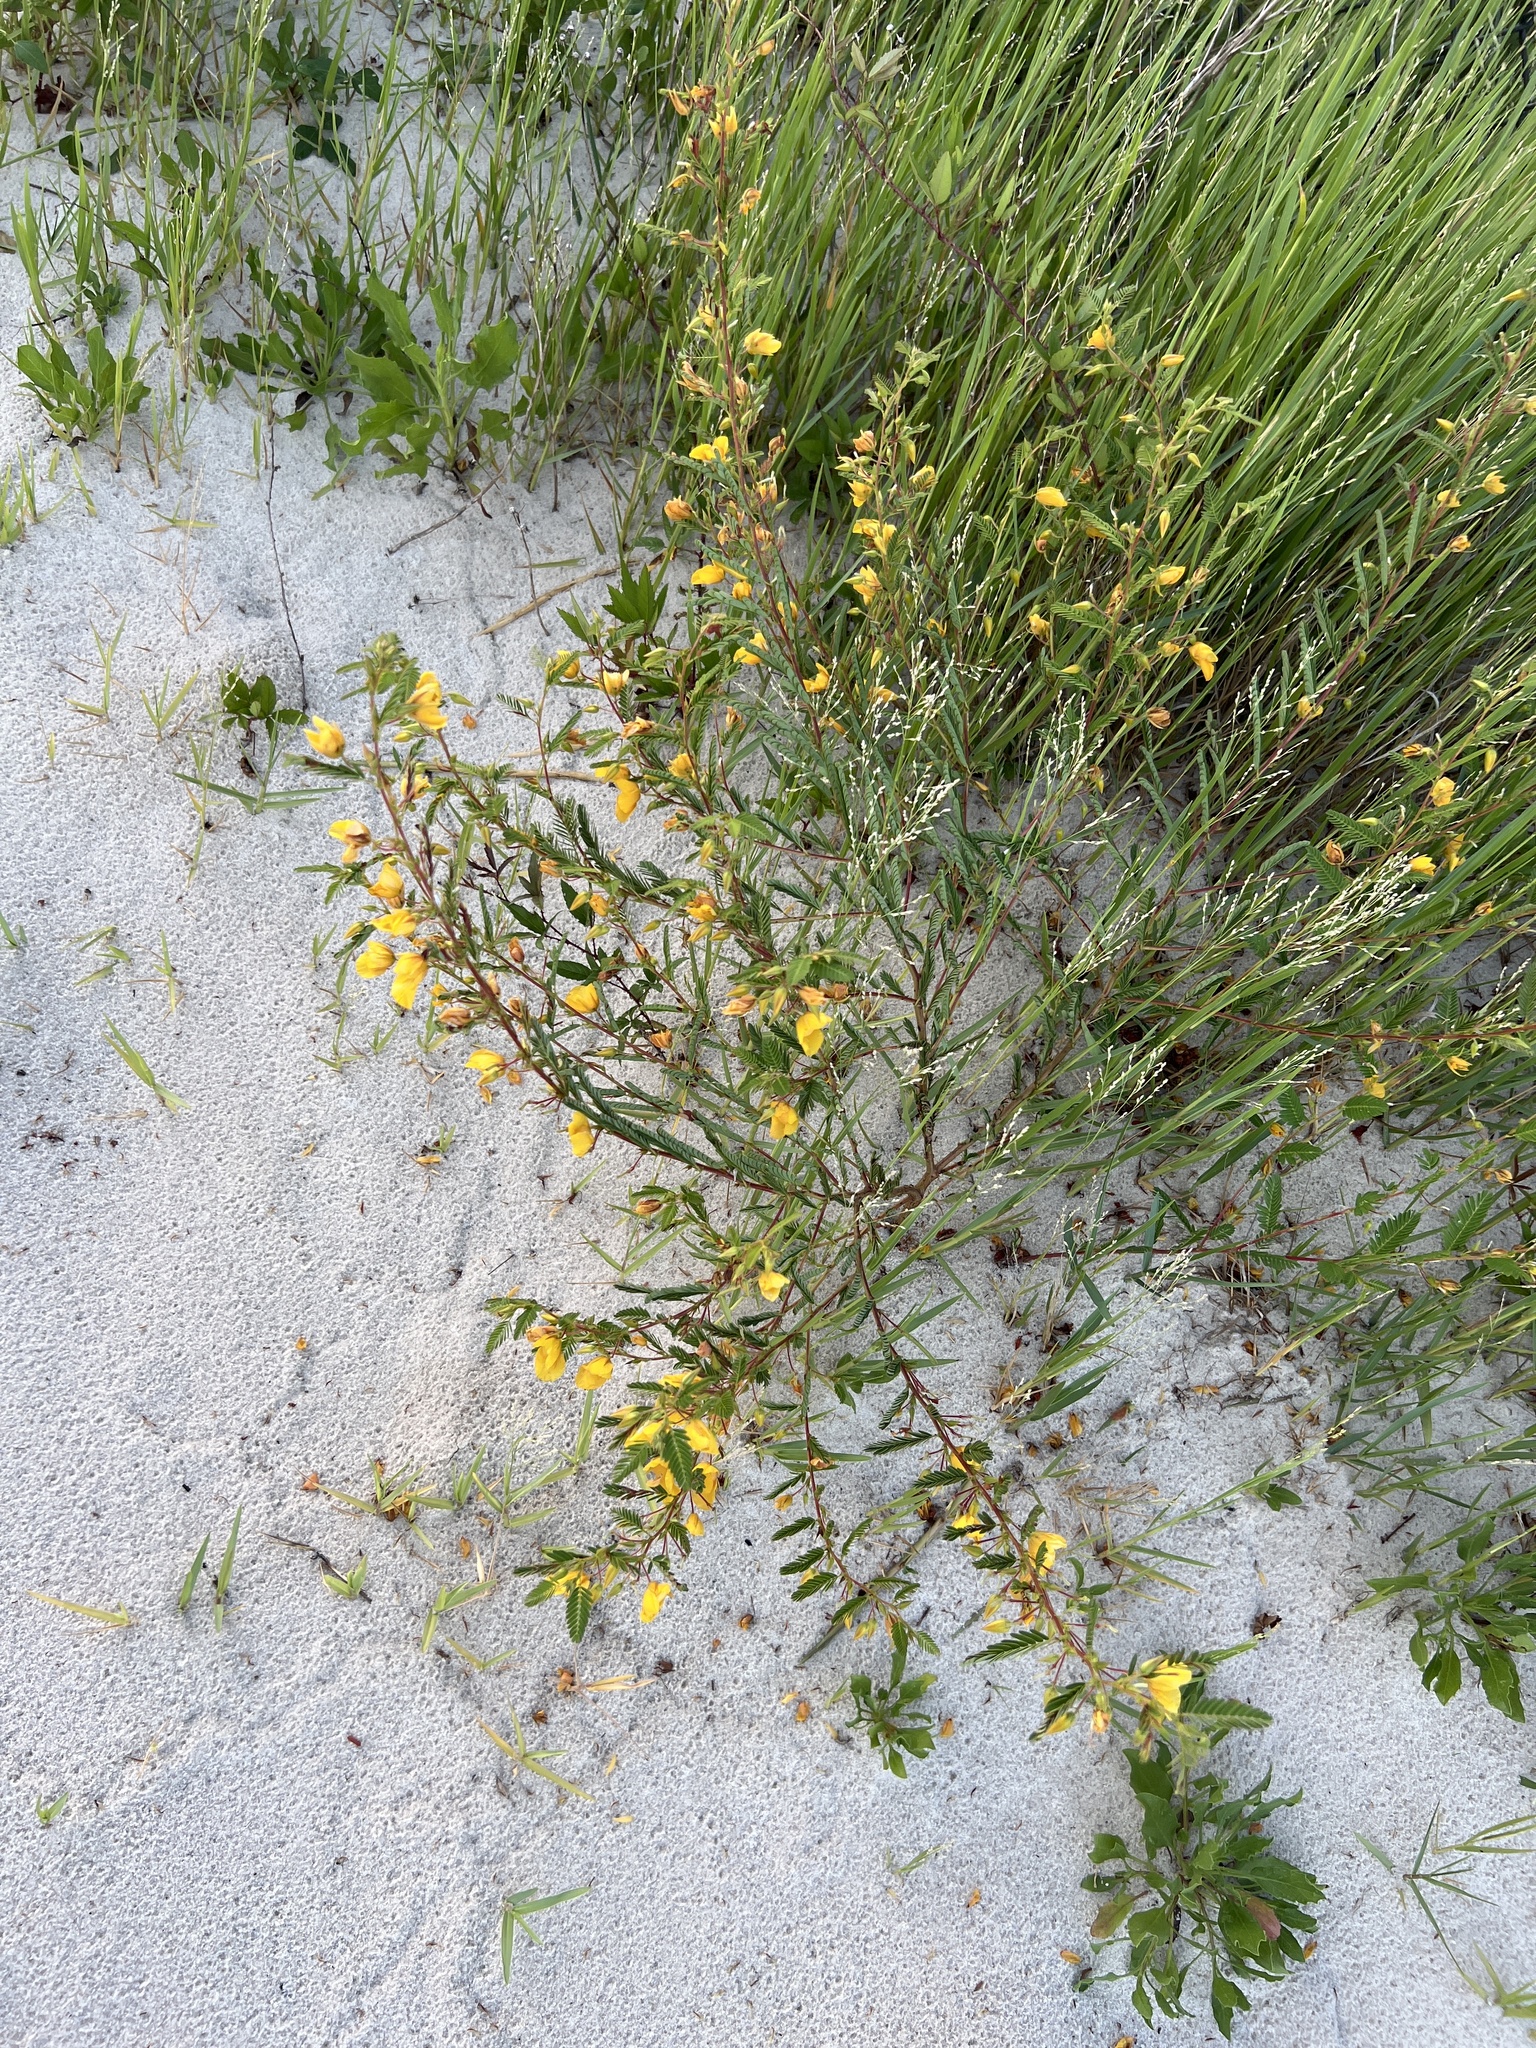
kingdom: Plantae
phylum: Tracheophyta
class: Magnoliopsida
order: Fabales
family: Fabaceae
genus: Chamaecrista
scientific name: Chamaecrista fasciculata
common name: Golden cassia
